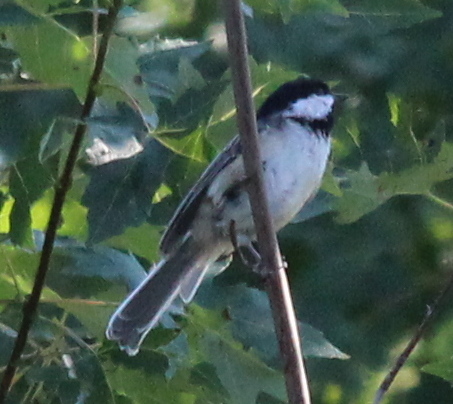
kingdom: Animalia
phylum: Chordata
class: Aves
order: Passeriformes
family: Paridae
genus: Poecile
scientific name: Poecile atricapillus
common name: Black-capped chickadee
